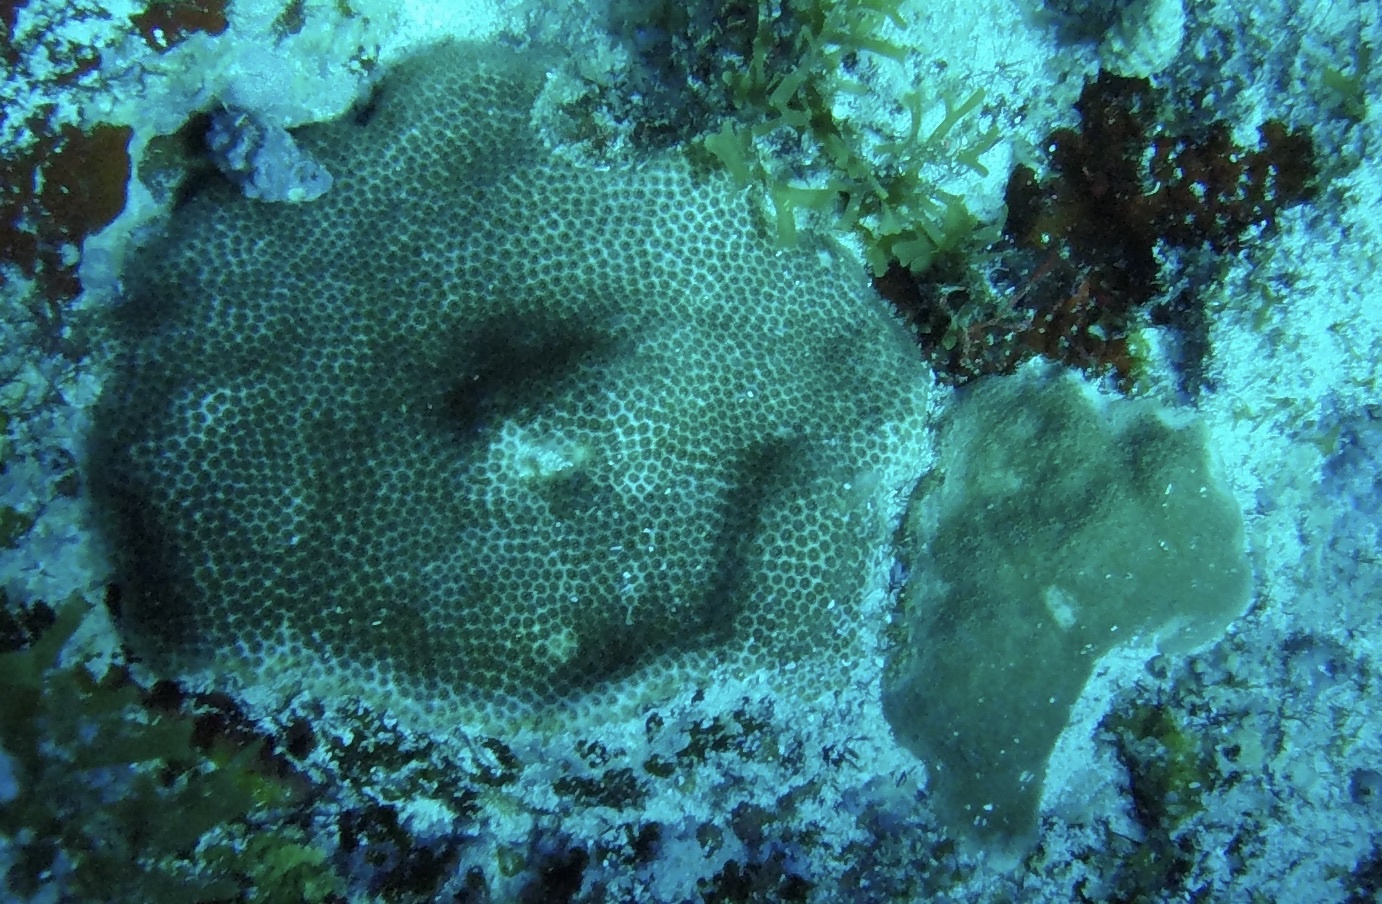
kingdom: Animalia
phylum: Cnidaria
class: Anthozoa
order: Scleractinia
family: Astrocoeniidae
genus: Stephanocoenia
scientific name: Stephanocoenia intersepta
